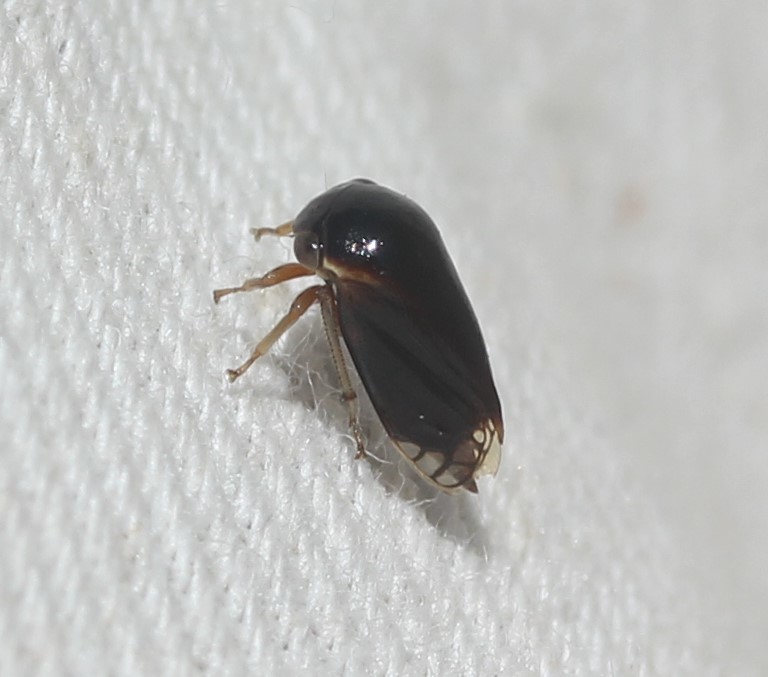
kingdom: Animalia
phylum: Arthropoda
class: Insecta
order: Hemiptera
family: Membracidae
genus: Acutalis
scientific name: Acutalis tartarea
